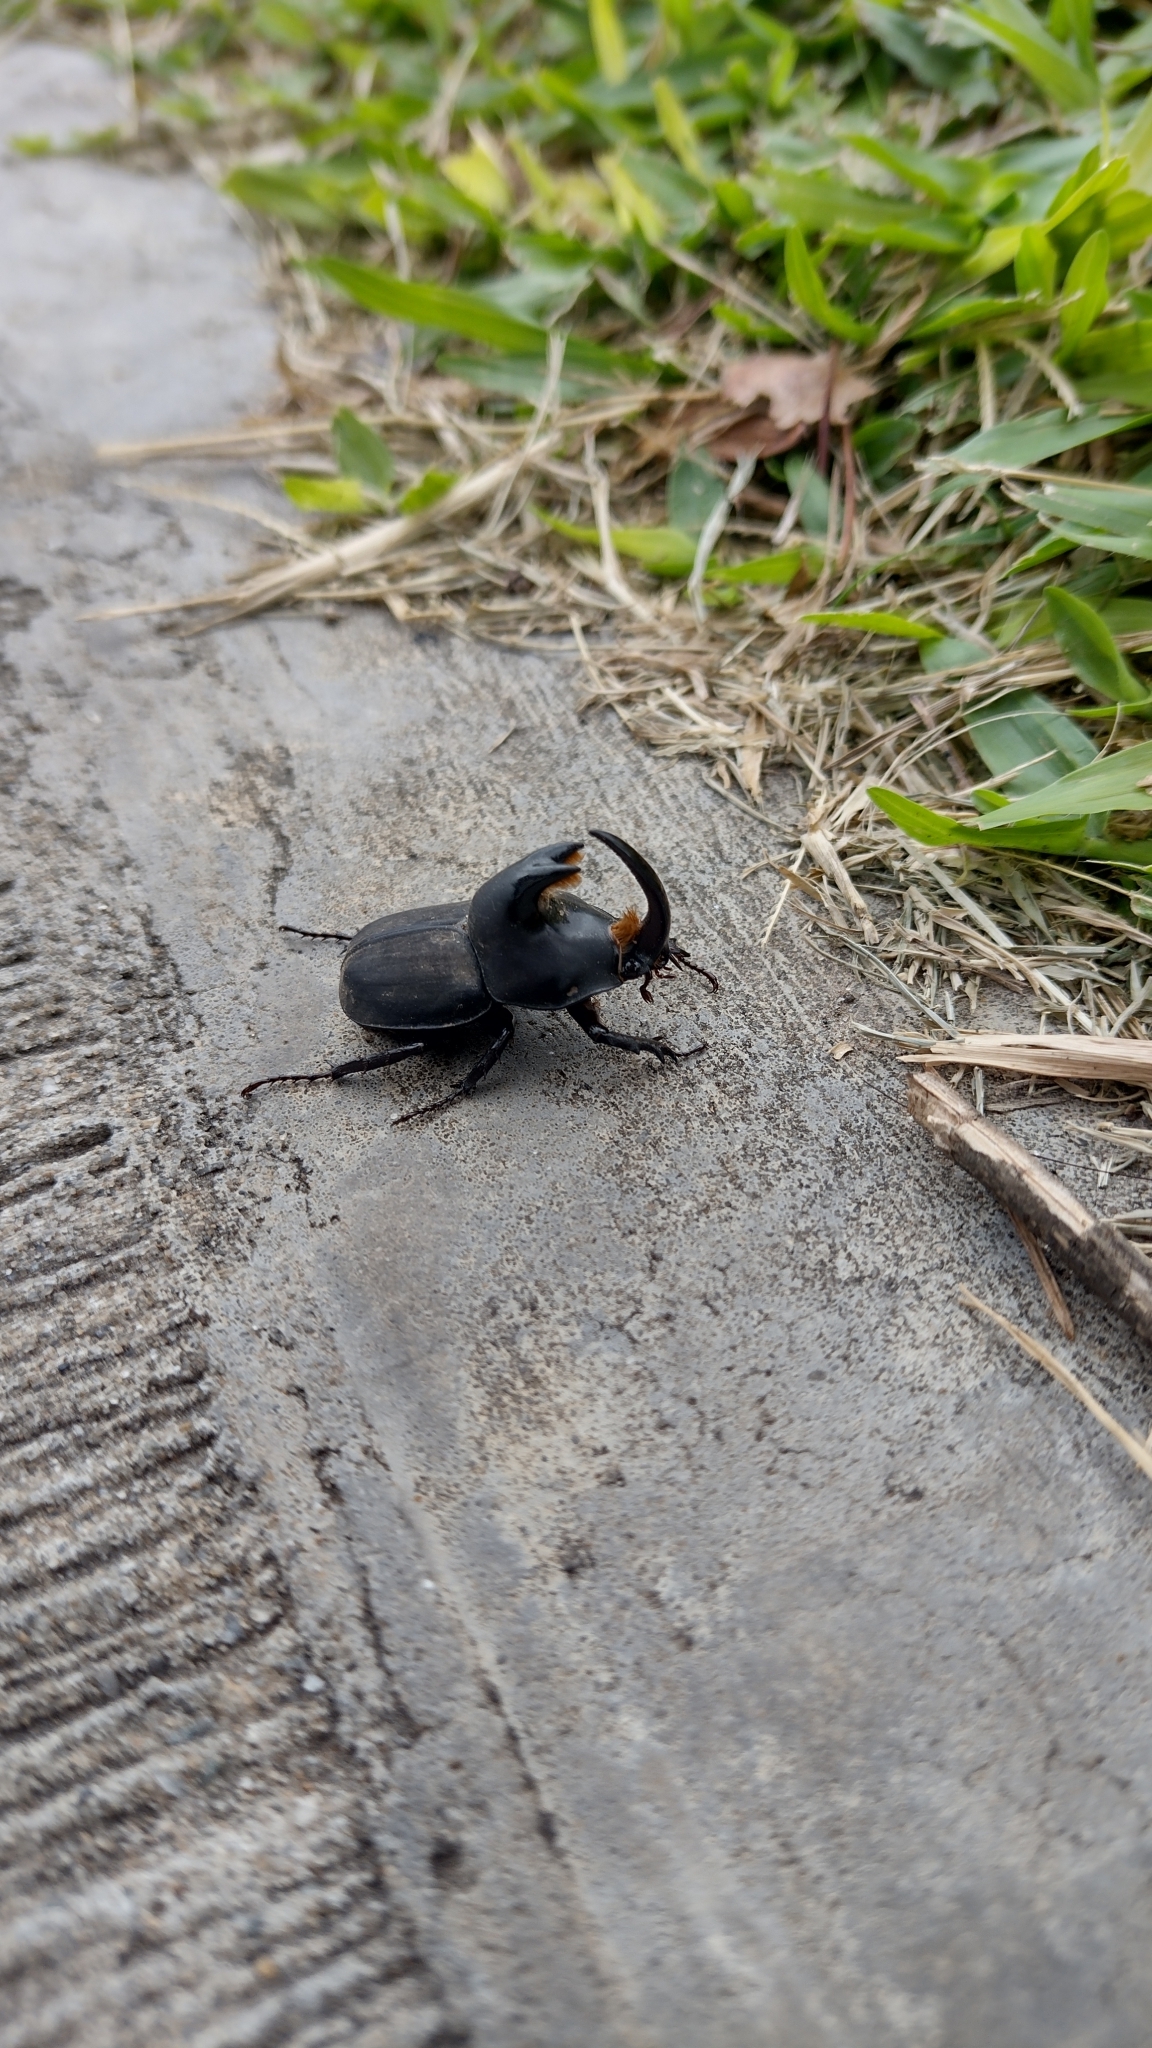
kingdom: Animalia
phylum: Arthropoda
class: Insecta
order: Coleoptera
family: Scarabaeidae
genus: Diloboderus
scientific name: Diloboderus abderus
